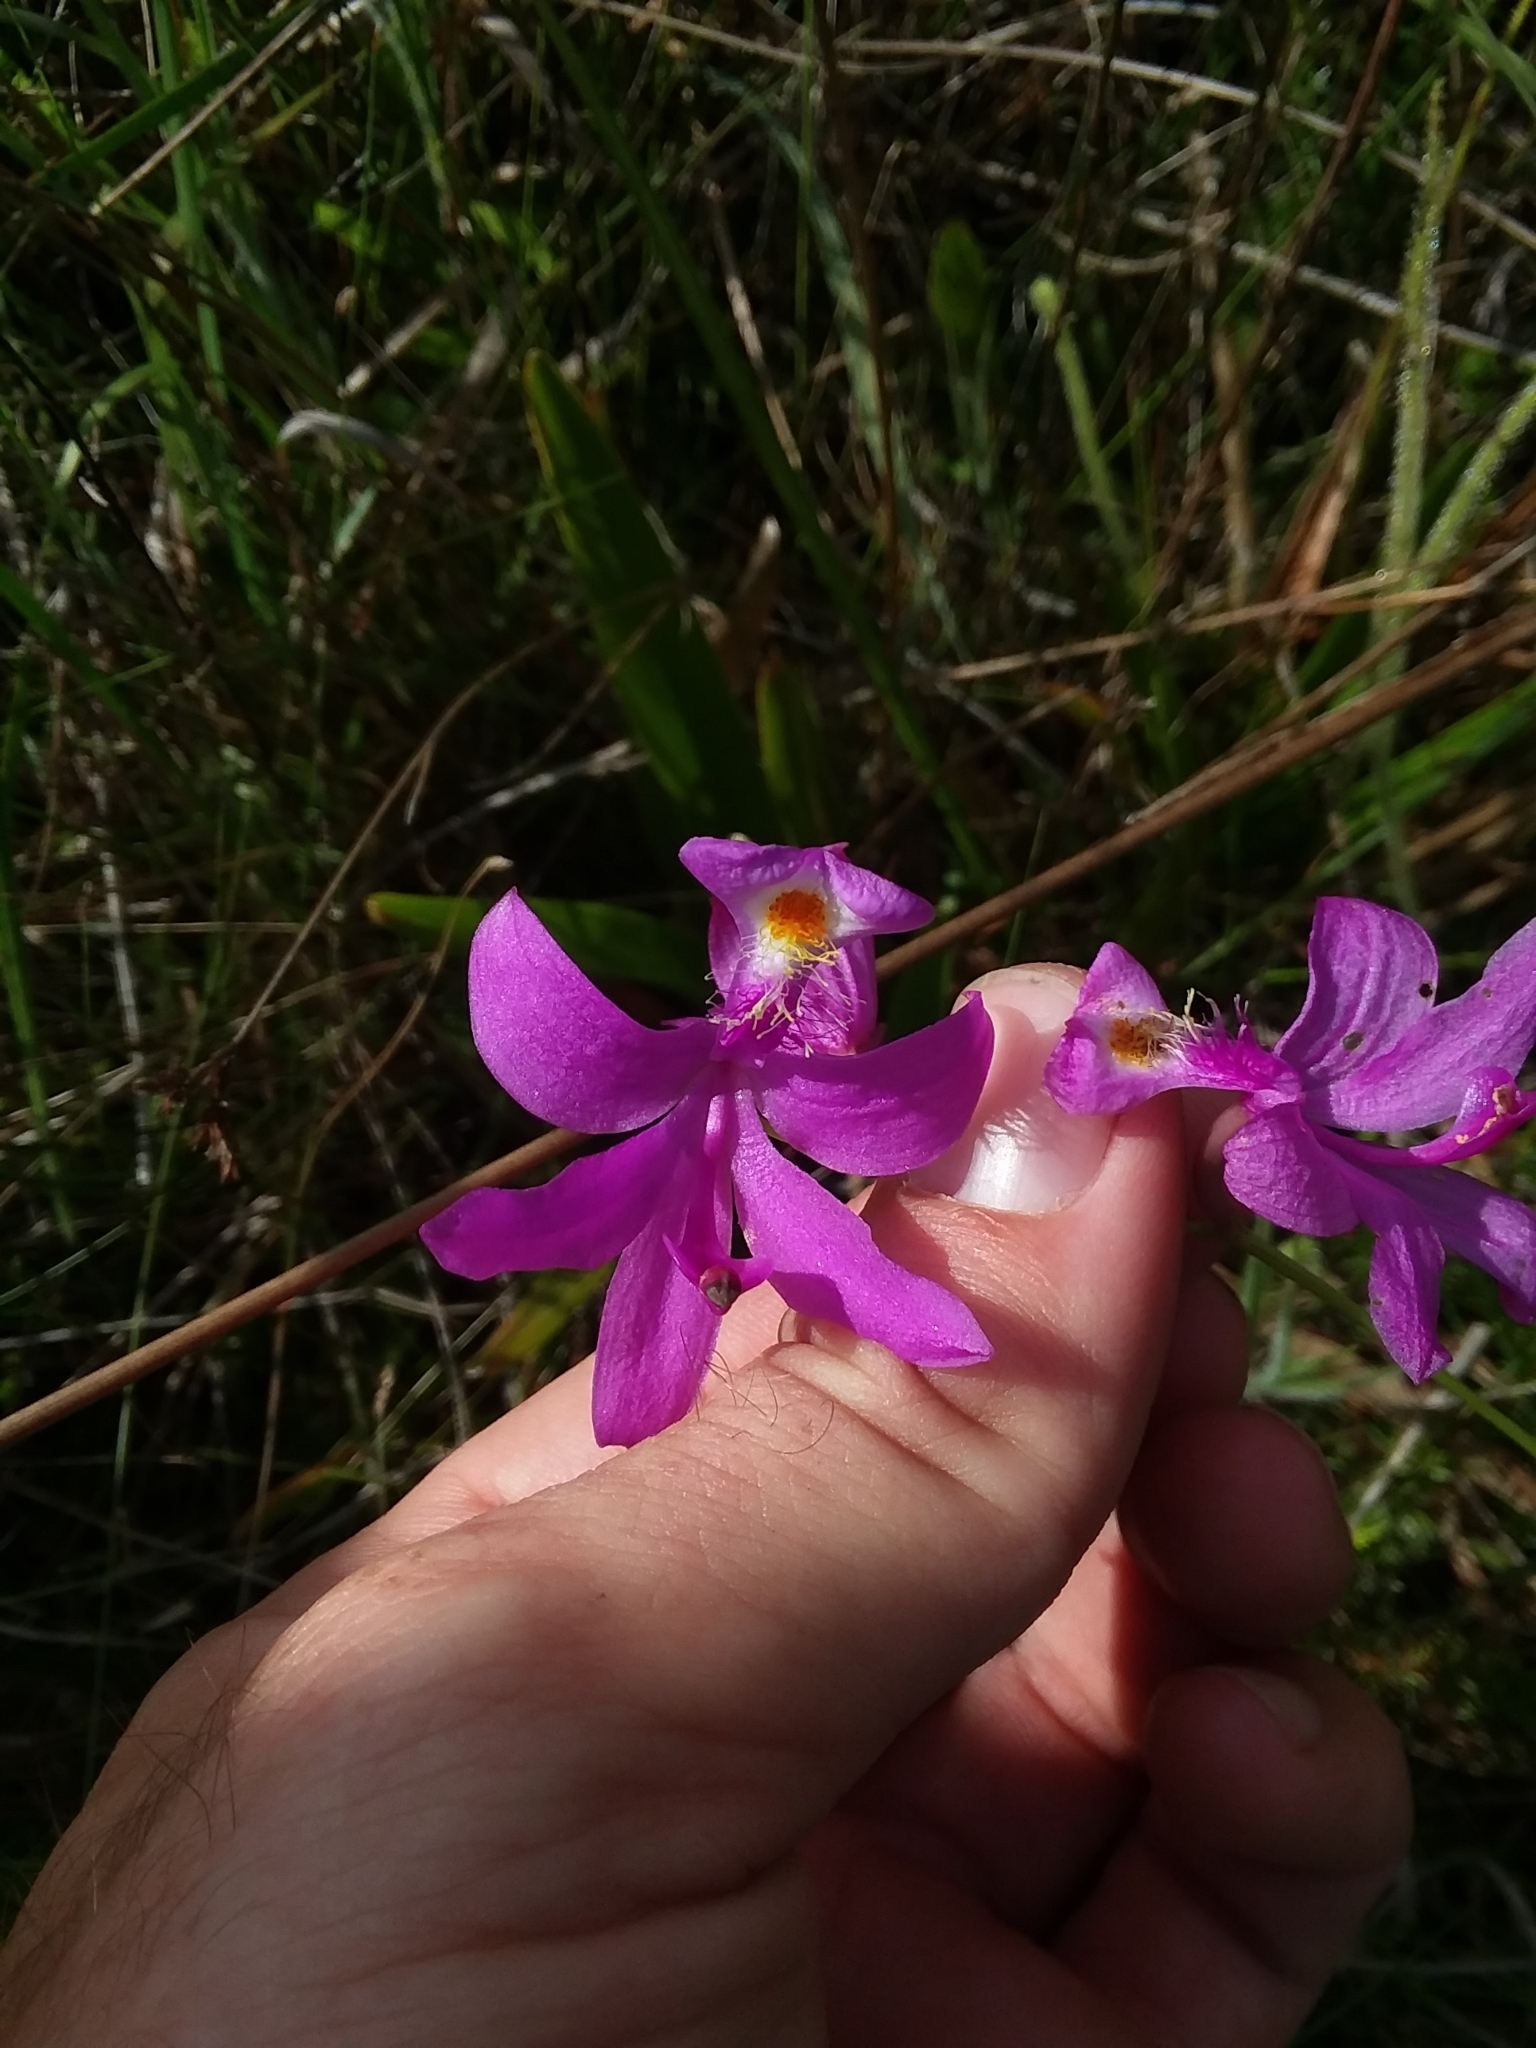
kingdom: Plantae
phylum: Tracheophyta
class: Liliopsida
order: Asparagales
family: Orchidaceae
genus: Calopogon
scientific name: Calopogon tuberosus
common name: Grass-pink
